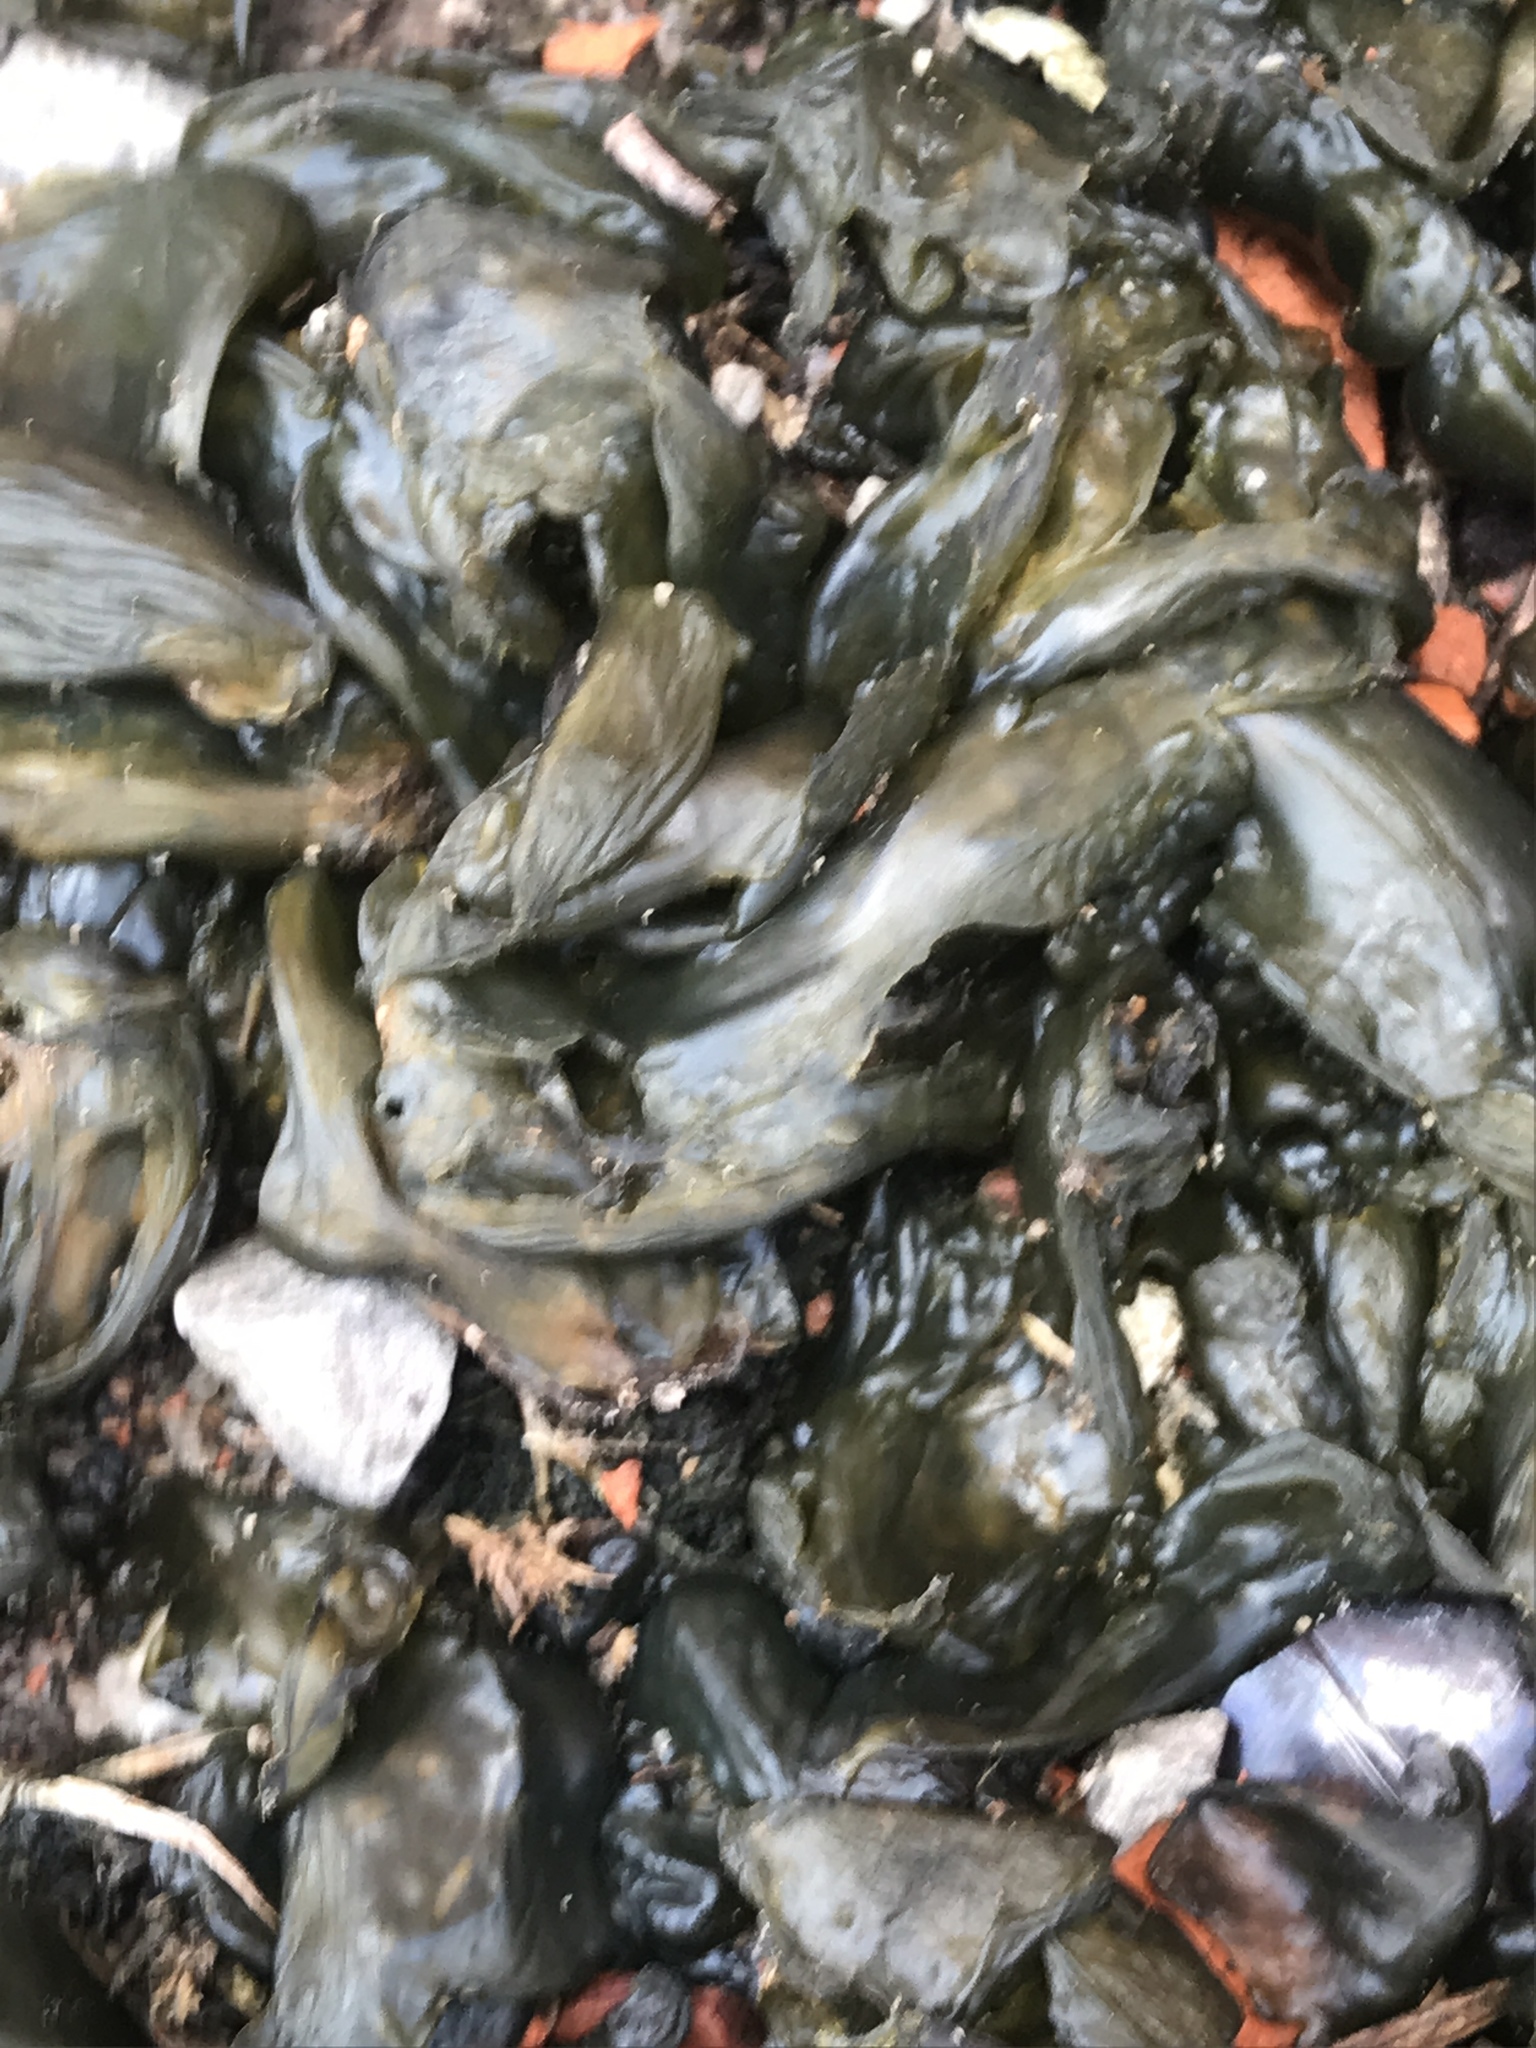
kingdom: Bacteria
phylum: Cyanobacteria
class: Cyanobacteriia
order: Cyanobacteriales
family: Nostocaceae
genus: Nostoc
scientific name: Nostoc commune
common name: Star jelly
